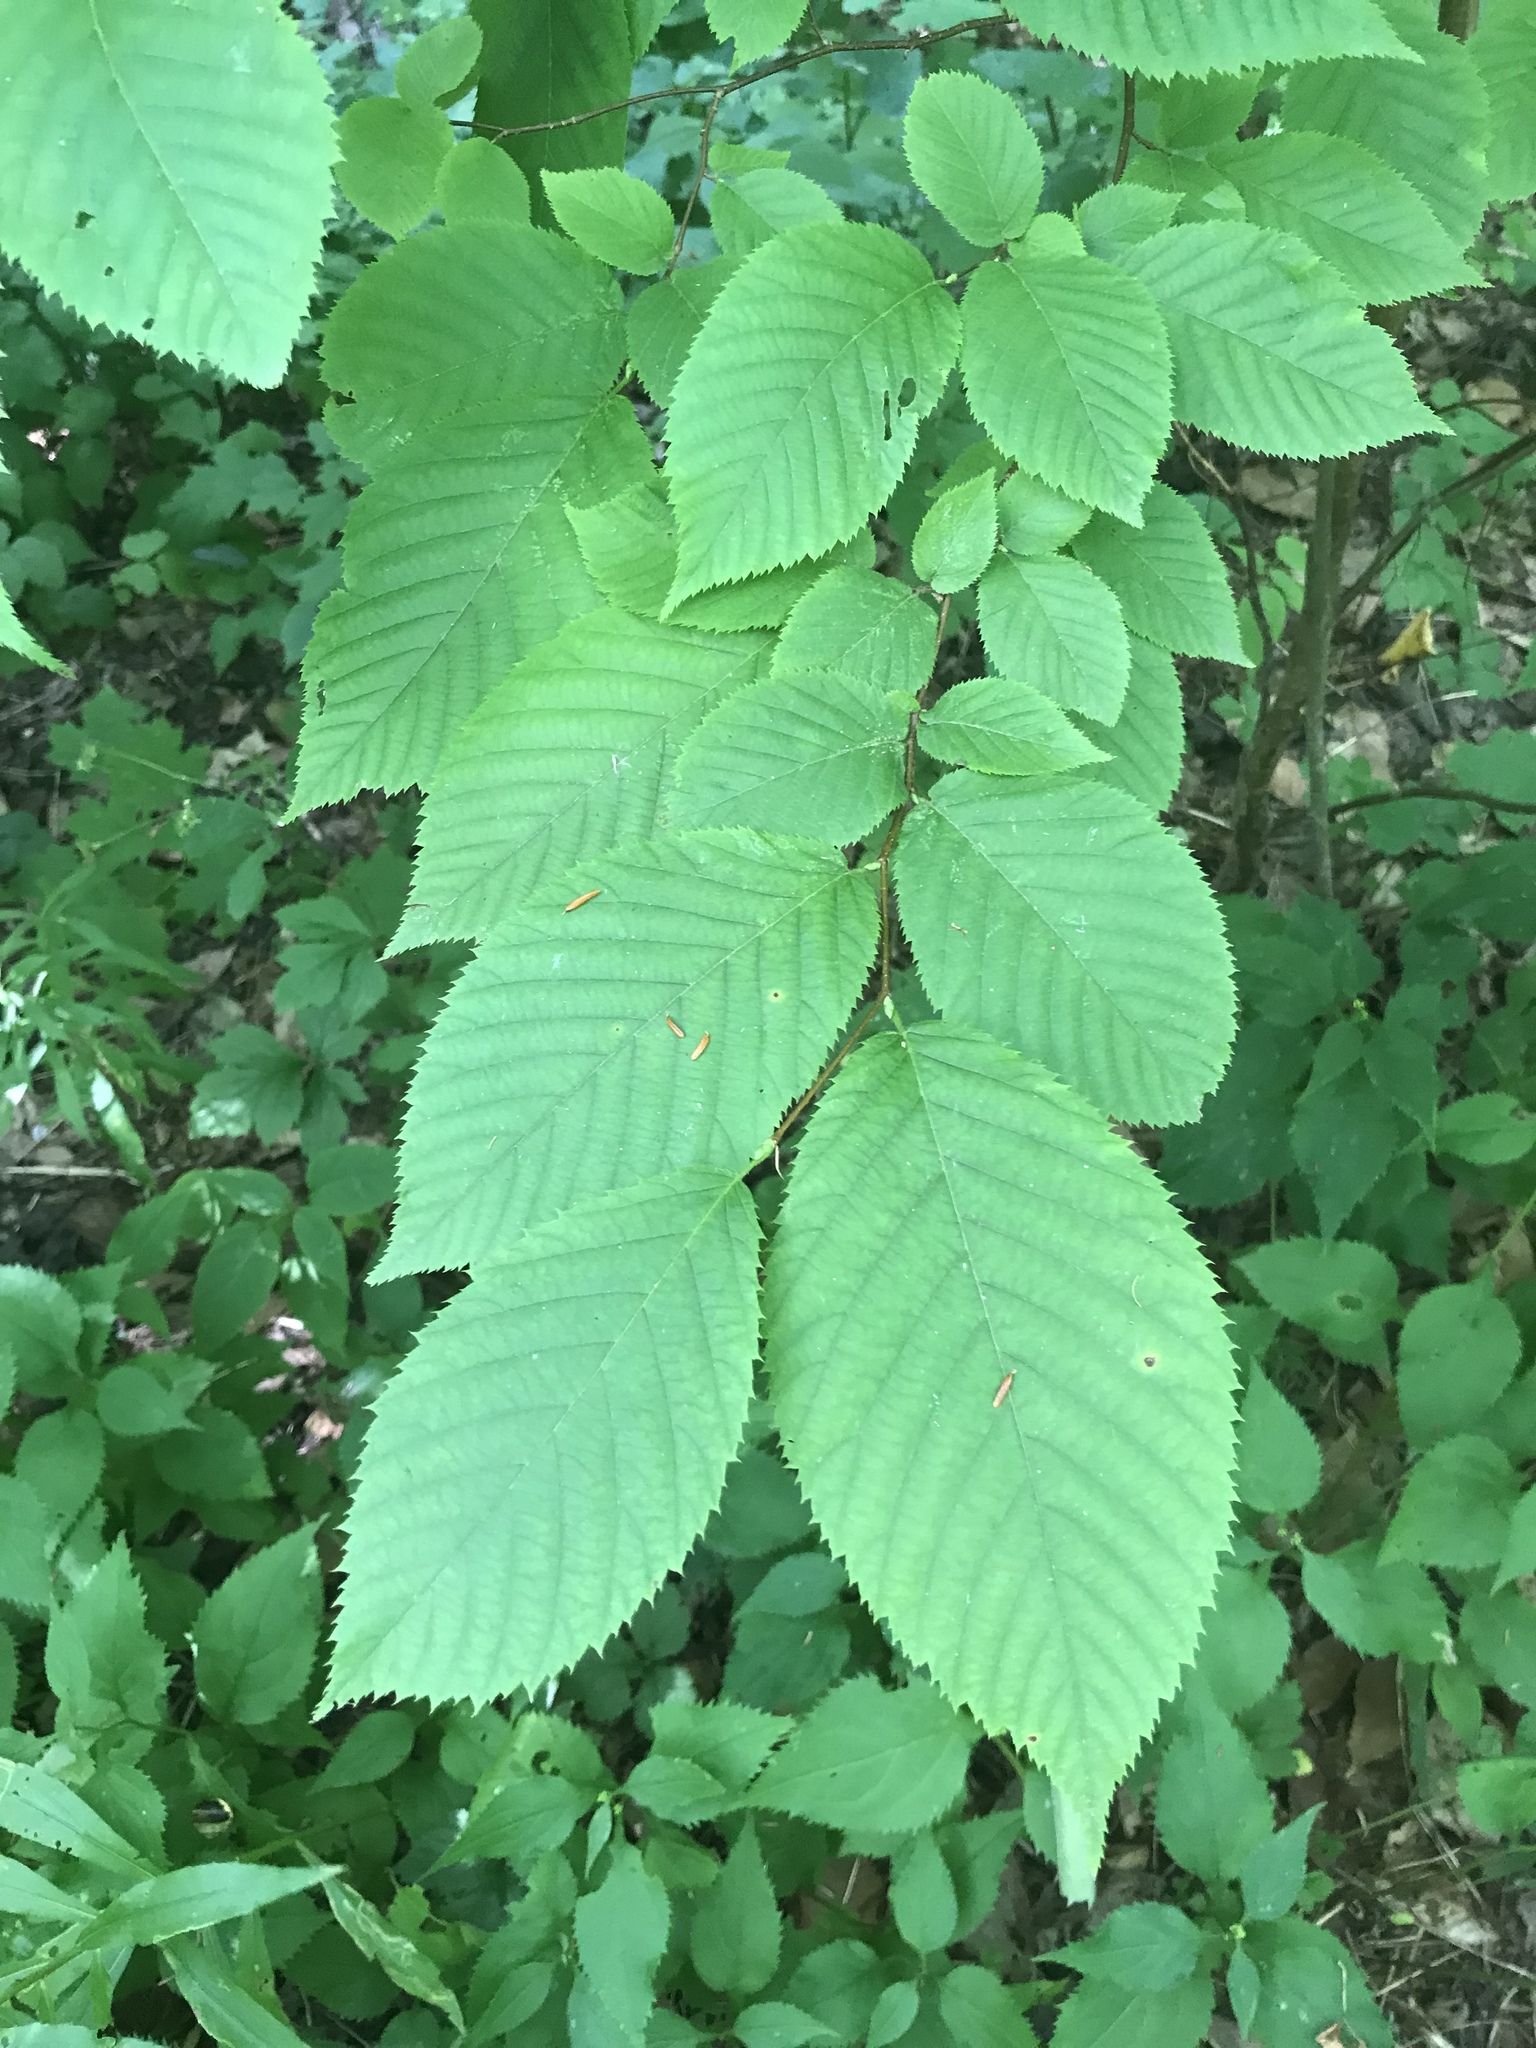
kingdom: Plantae
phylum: Tracheophyta
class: Magnoliopsida
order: Fagales
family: Betulaceae
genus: Ostrya
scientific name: Ostrya virginiana
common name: Ironwood
